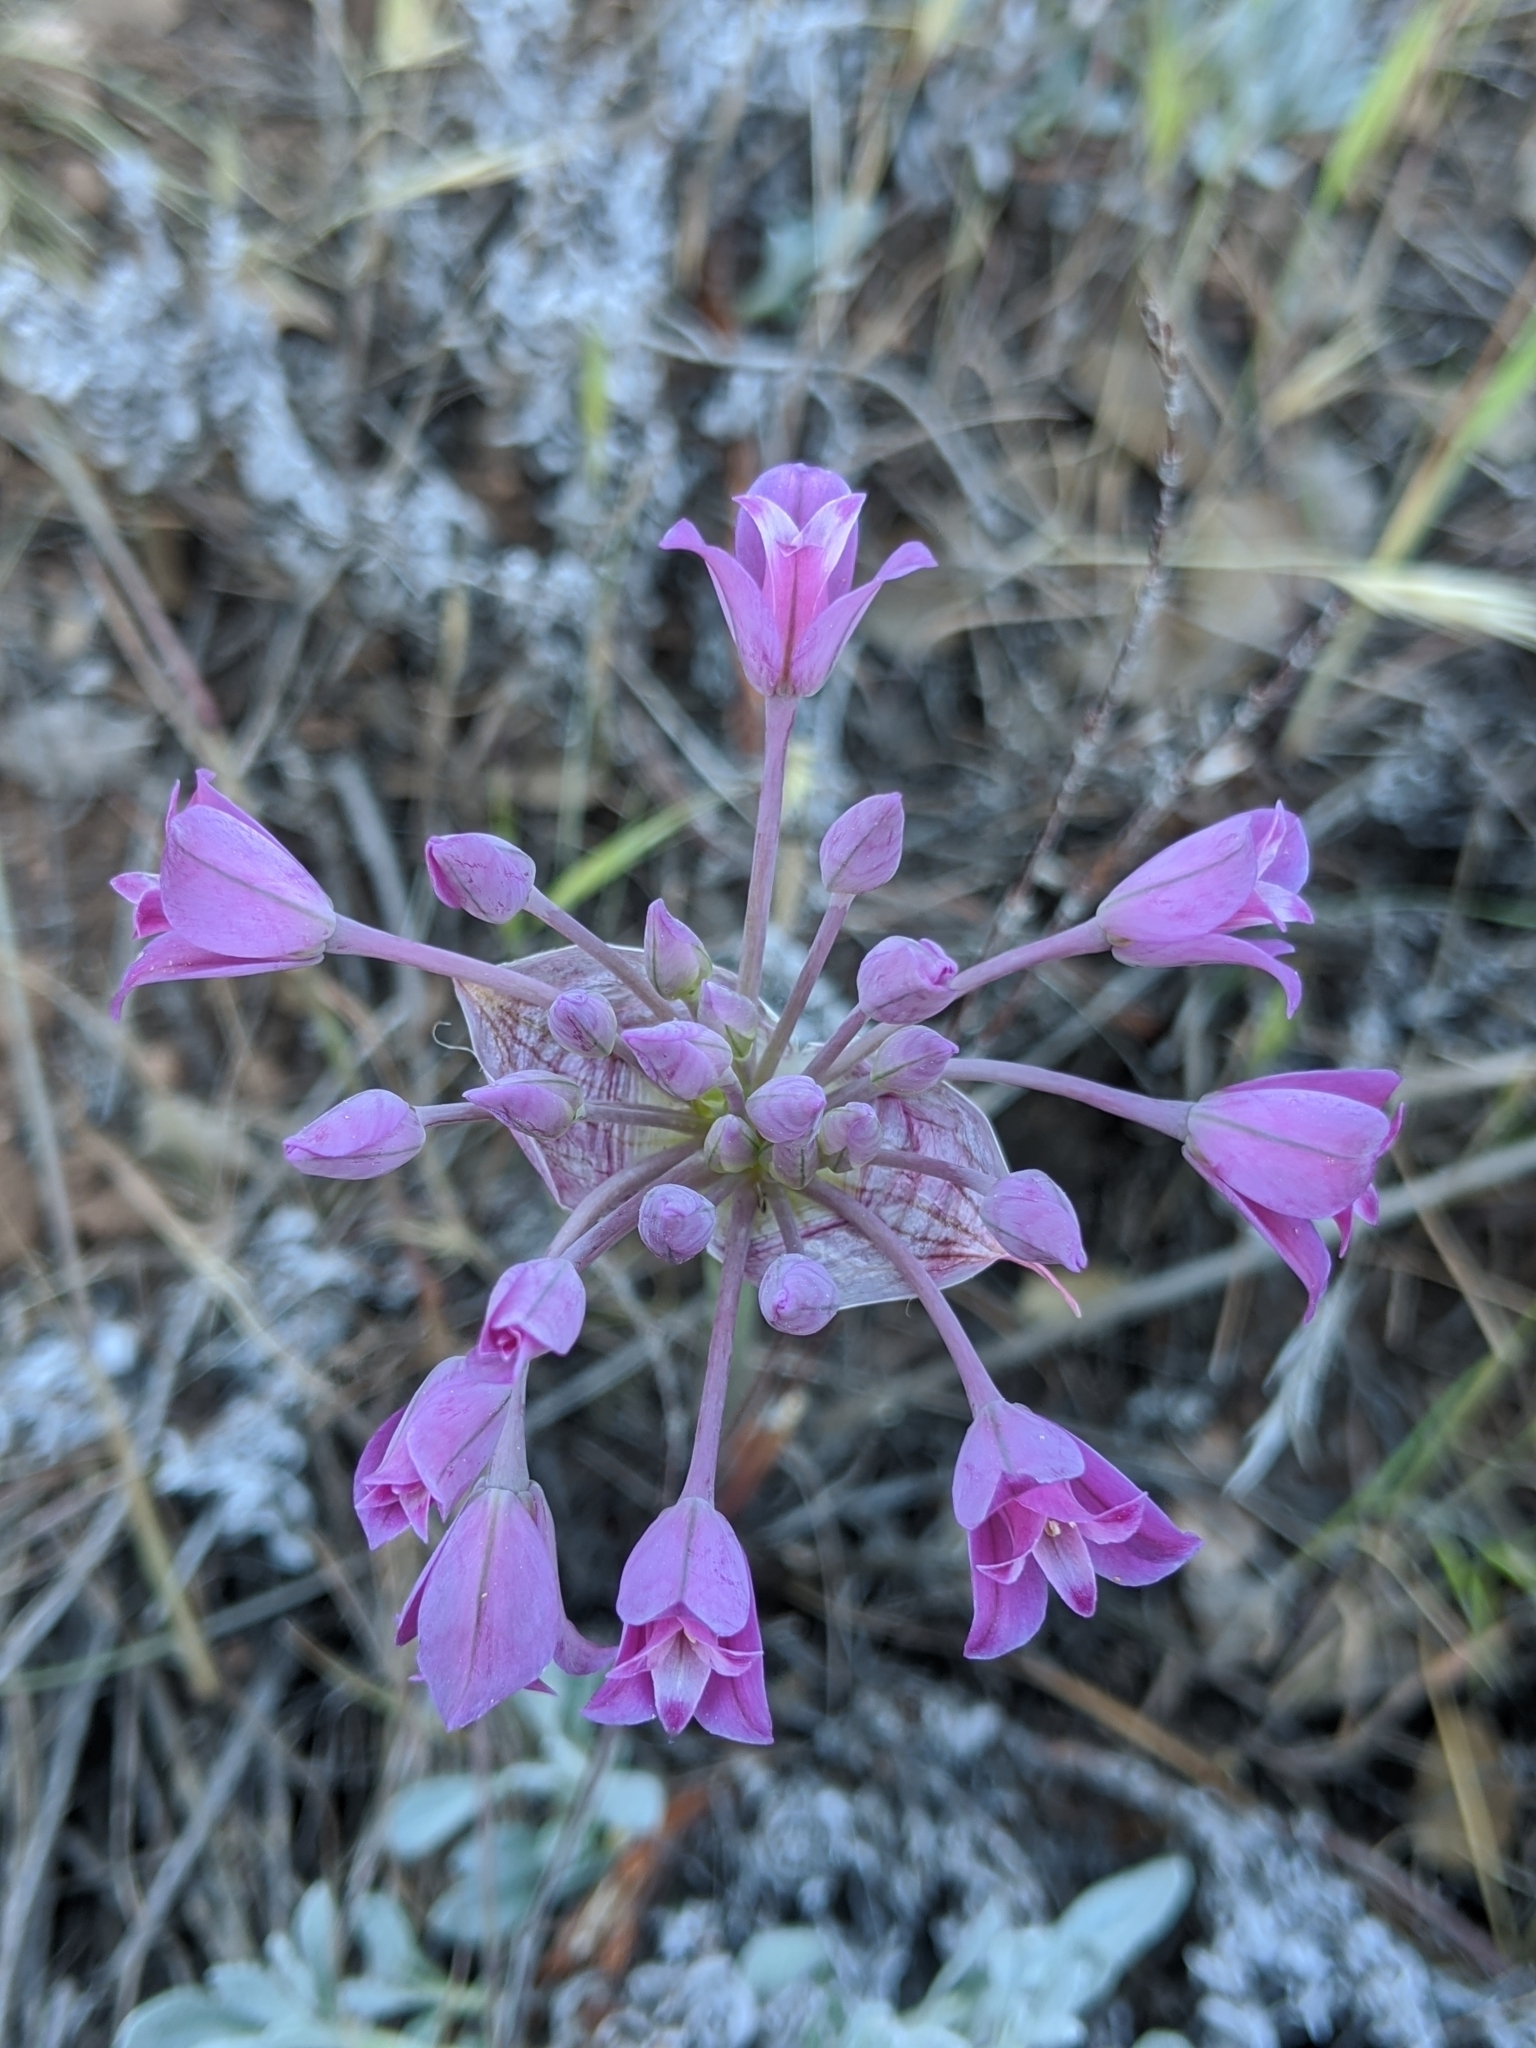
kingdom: Plantae
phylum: Tracheophyta
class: Liliopsida
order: Asparagales
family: Amaryllidaceae
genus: Allium
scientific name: Allium peninsulare
